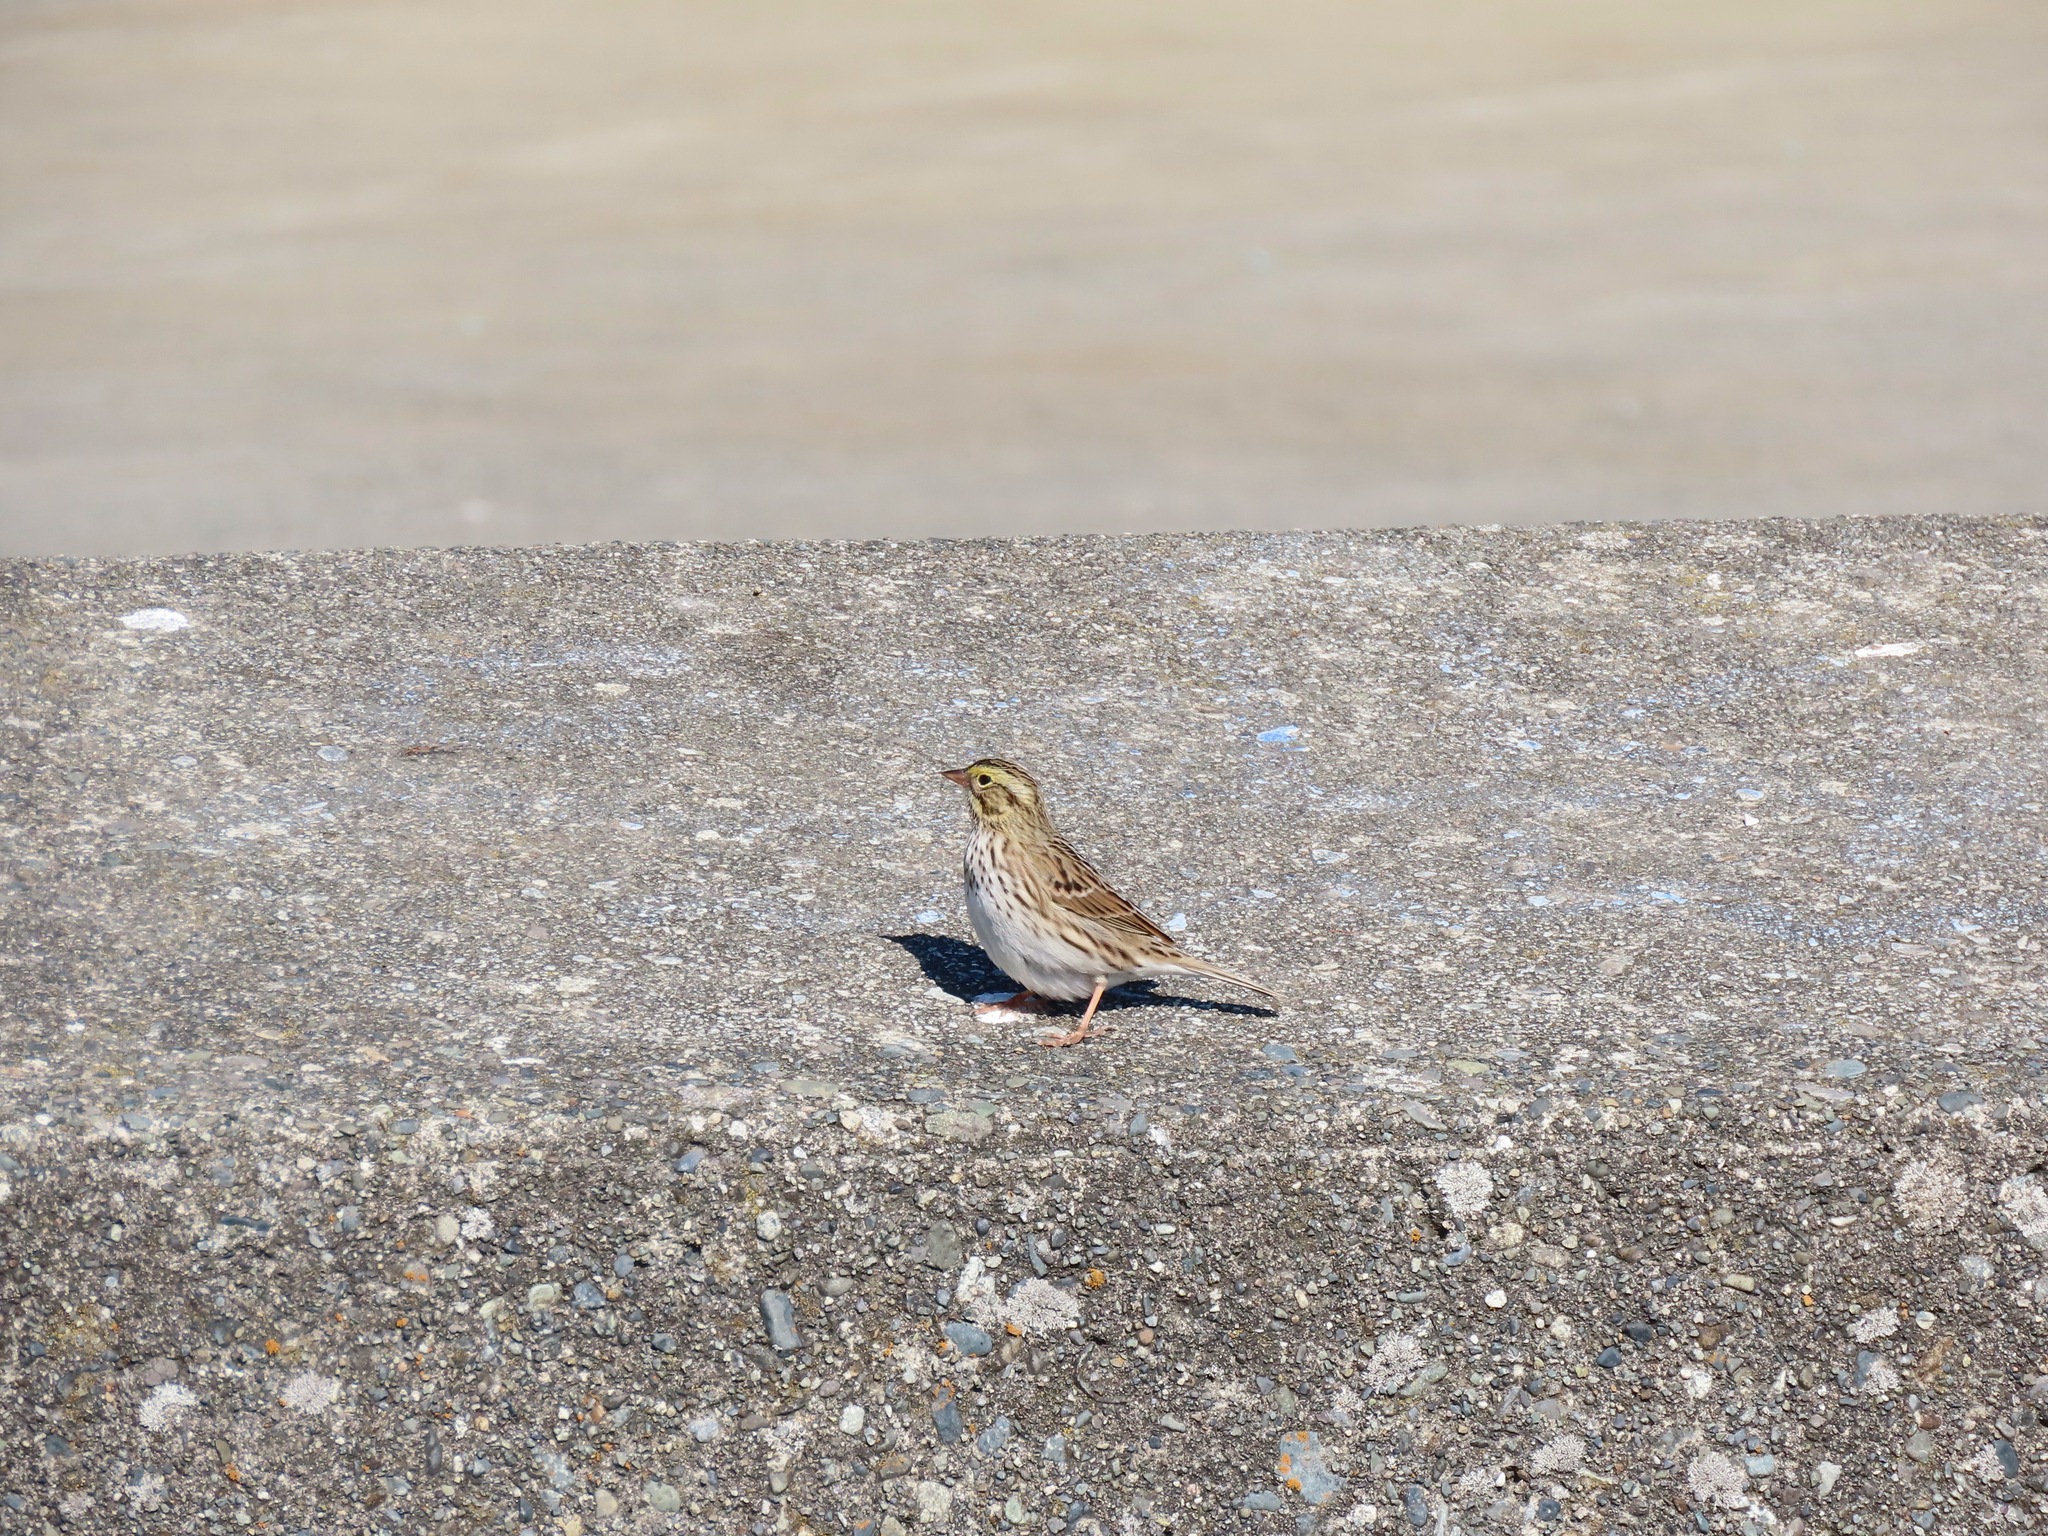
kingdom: Animalia
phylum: Chordata
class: Aves
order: Passeriformes
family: Passerellidae
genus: Passerculus
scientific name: Passerculus sandwichensis
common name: Savannah sparrow
